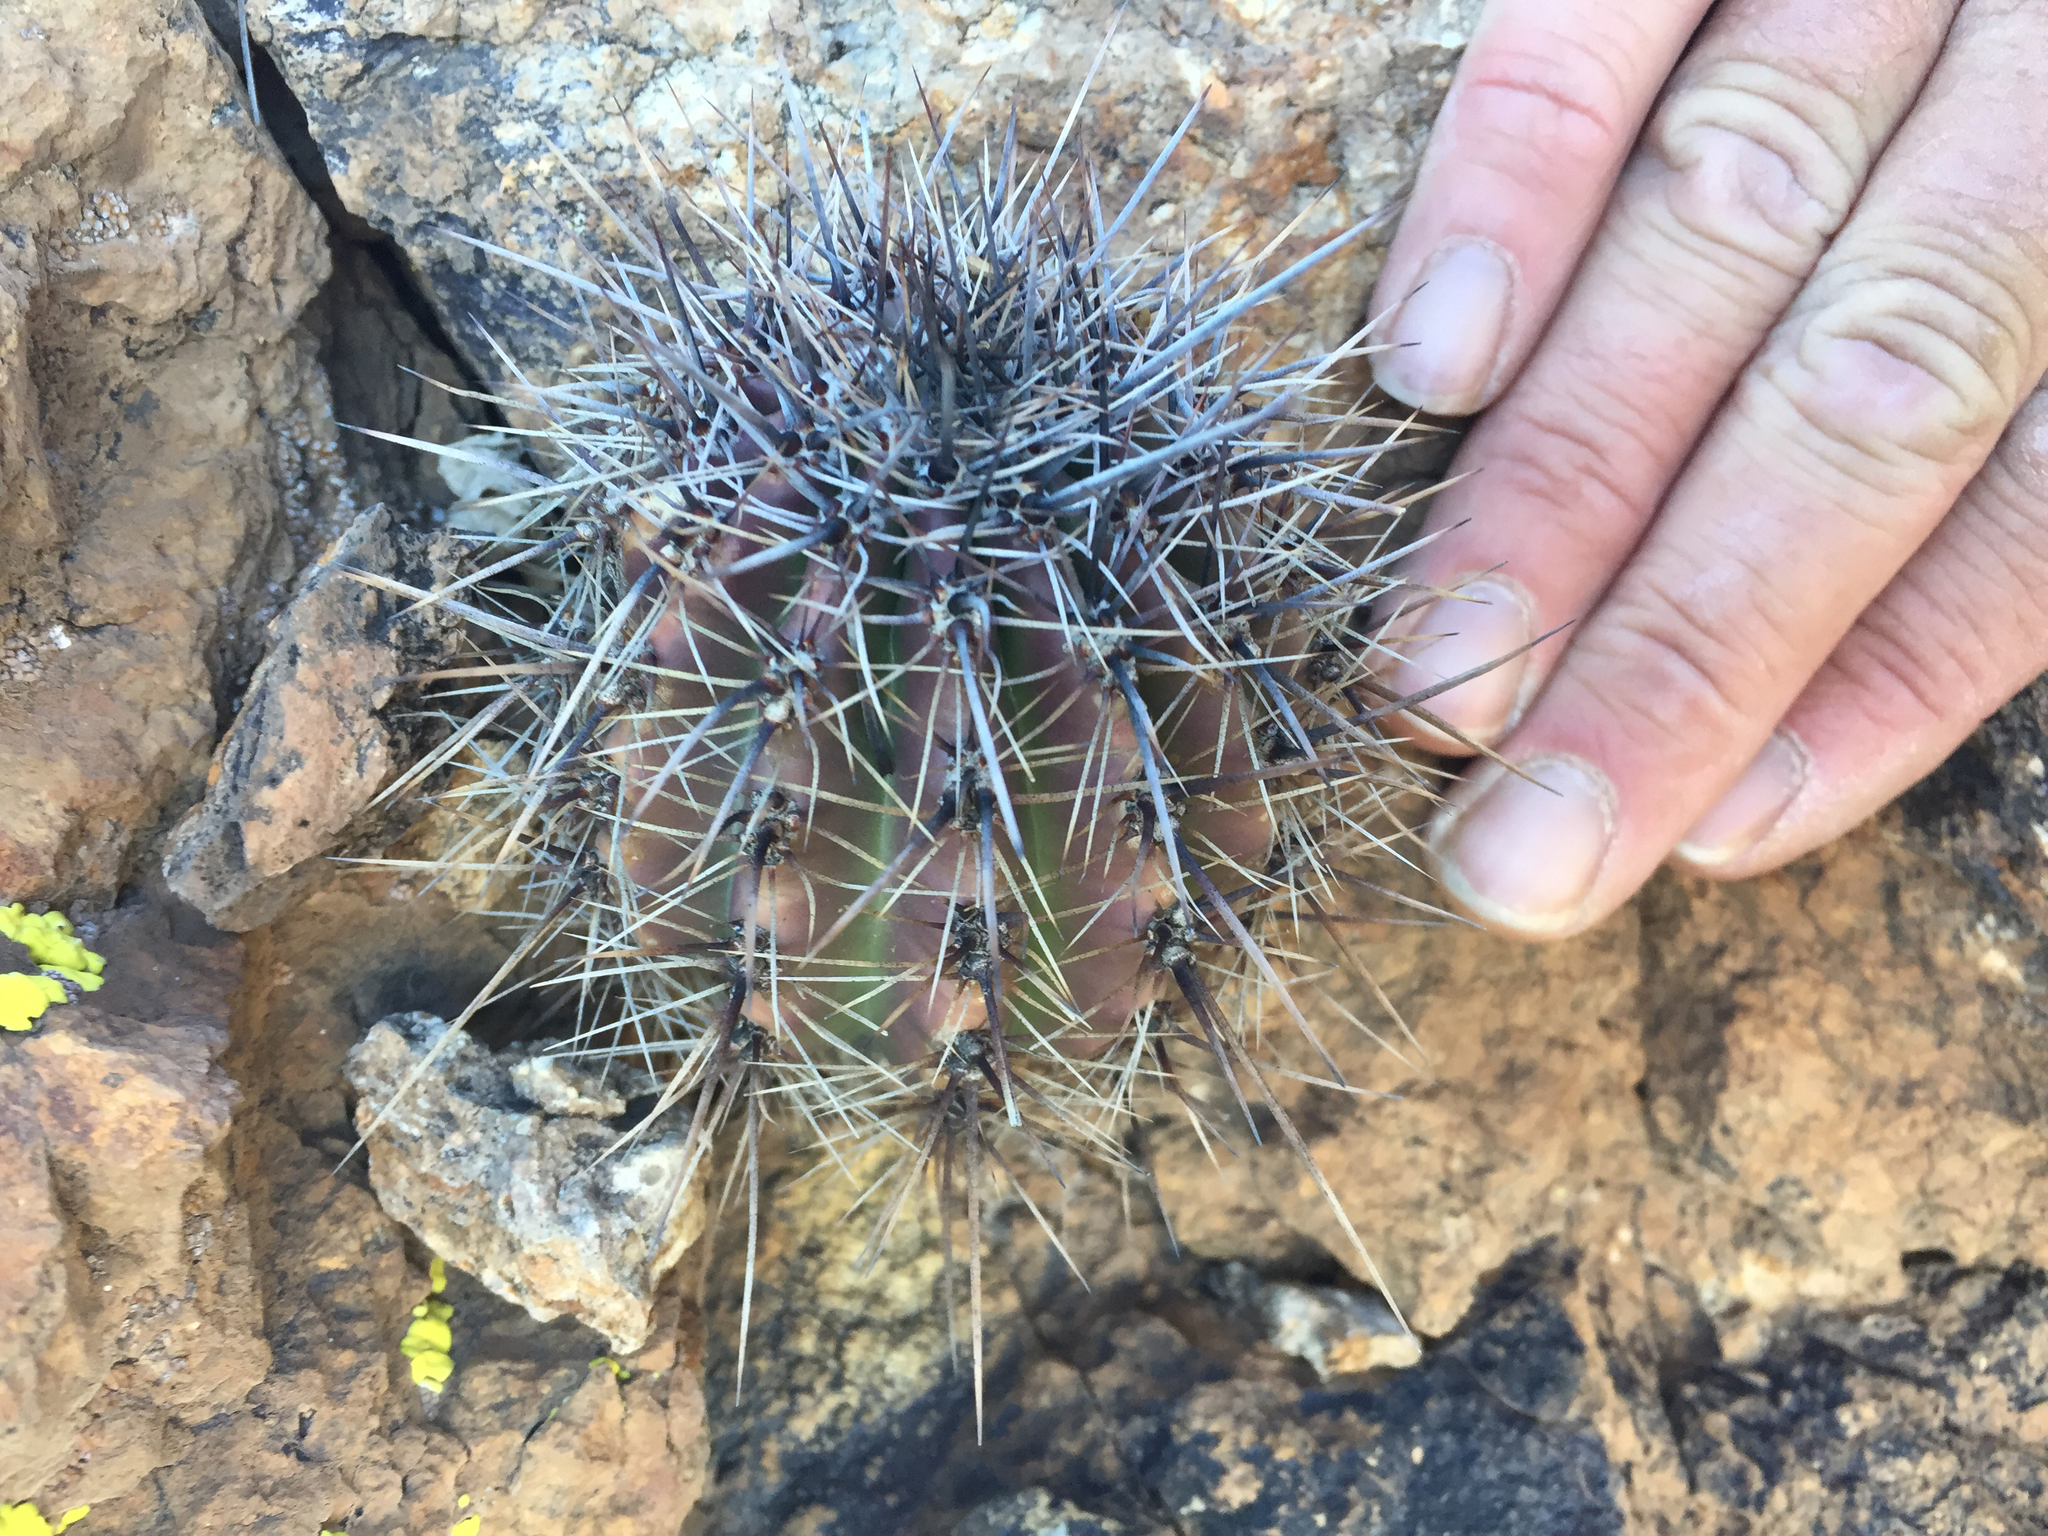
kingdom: Plantae
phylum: Tracheophyta
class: Magnoliopsida
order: Caryophyllales
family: Cactaceae
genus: Carnegiea
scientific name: Carnegiea gigantea
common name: Saguaro
